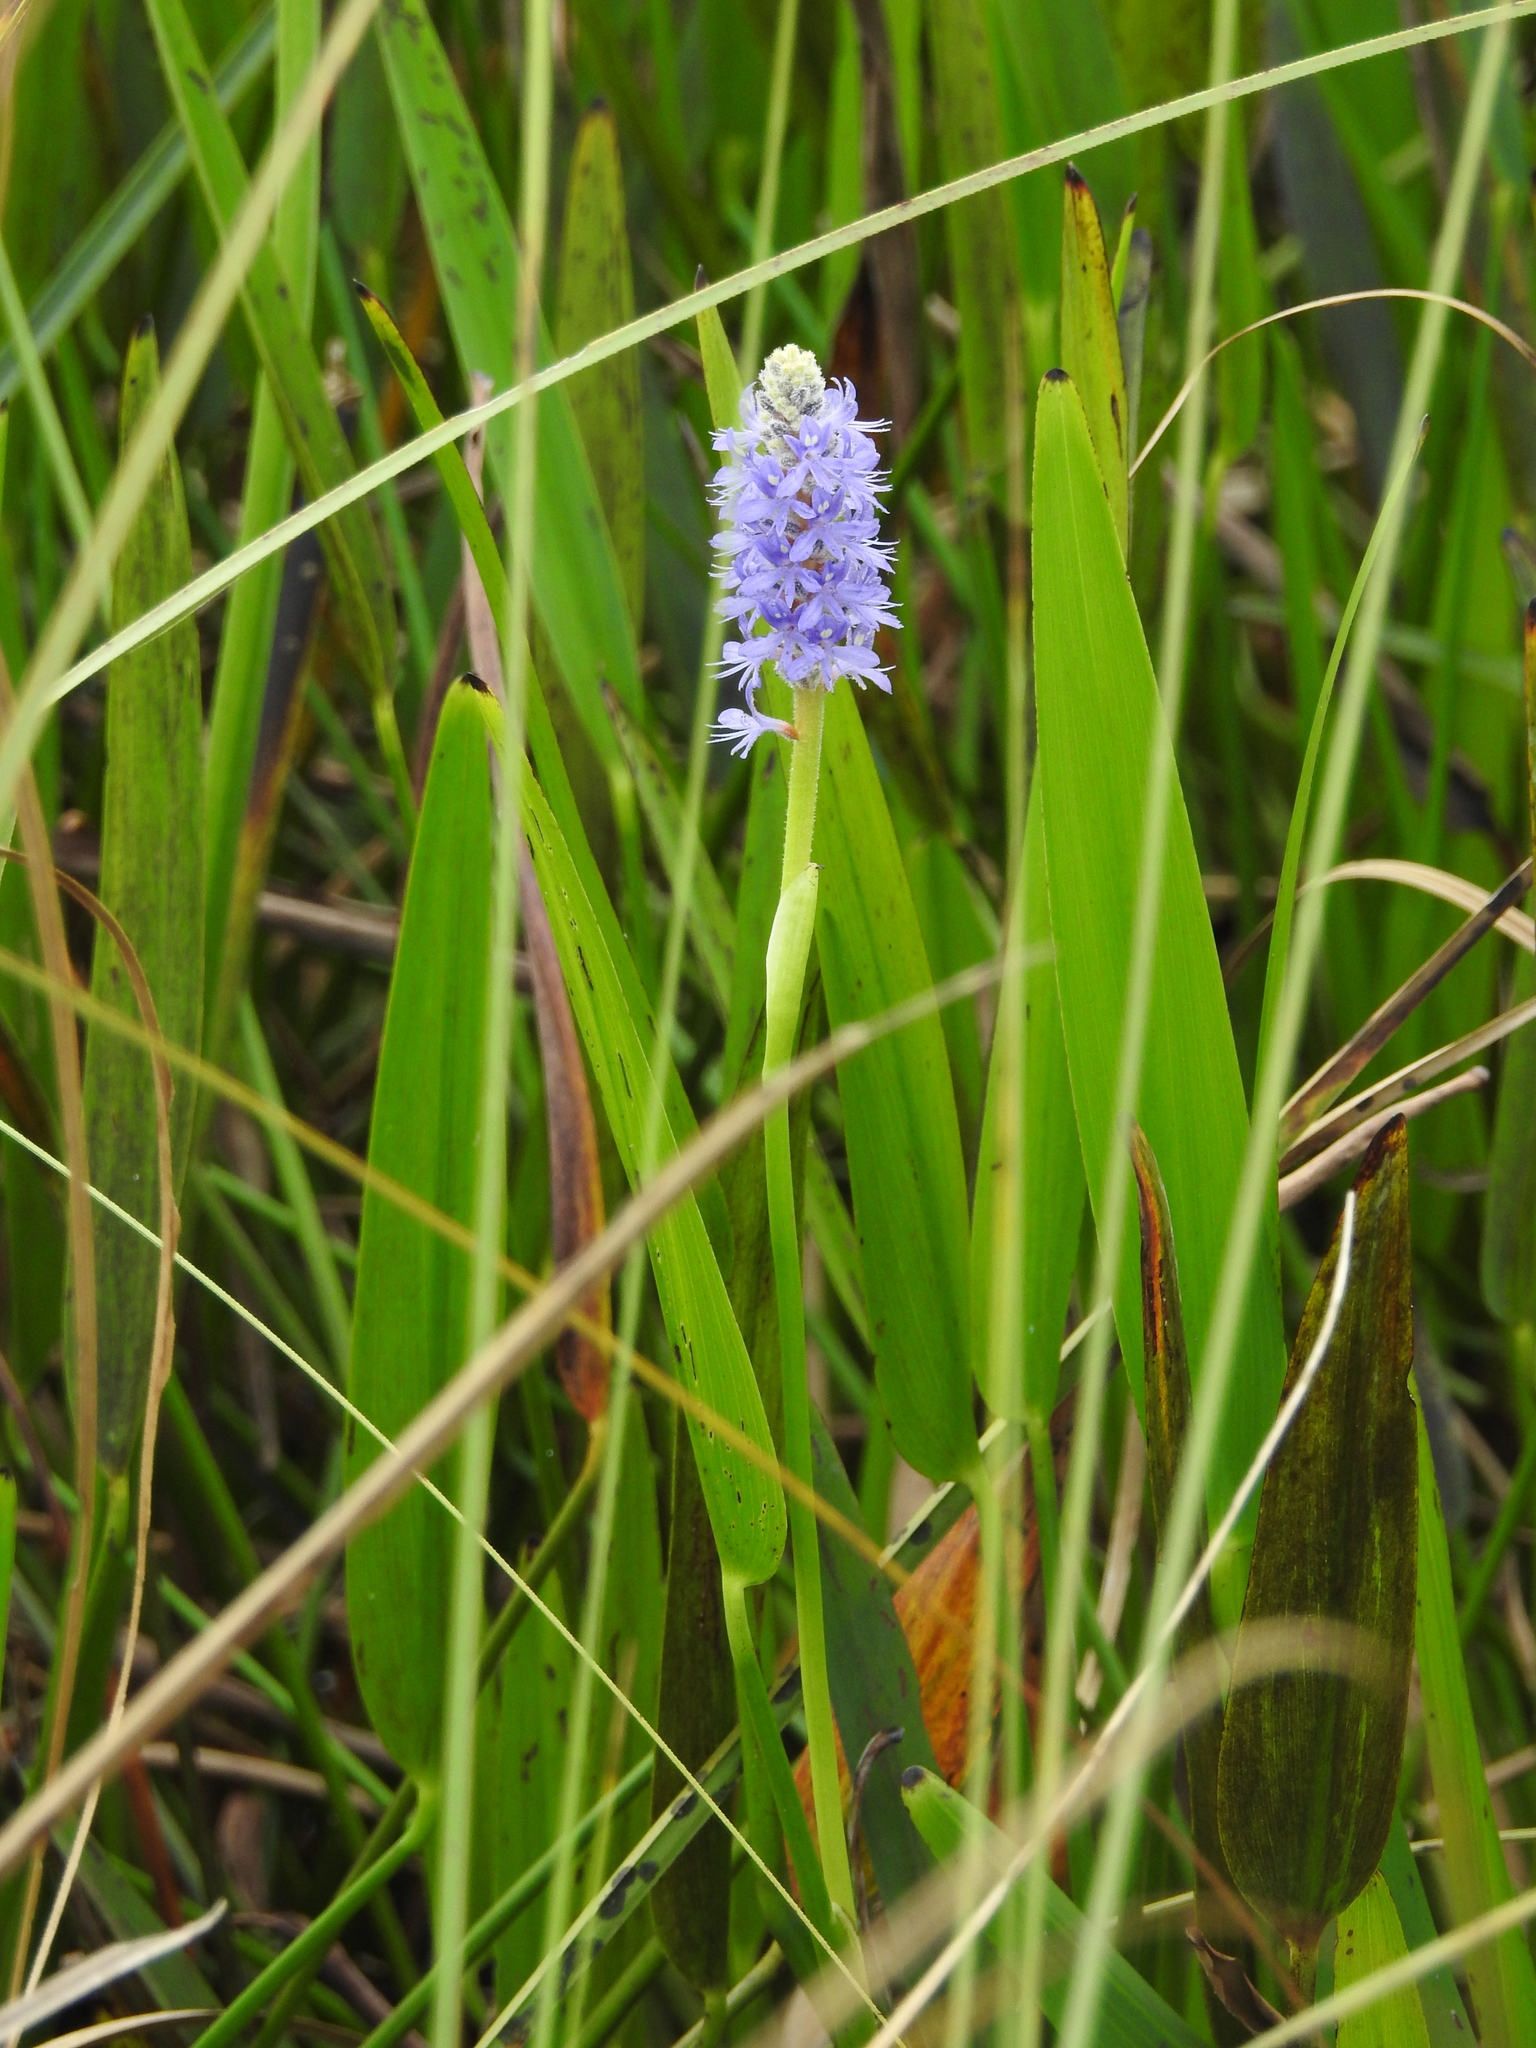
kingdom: Plantae
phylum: Tracheophyta
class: Liliopsida
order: Commelinales
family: Pontederiaceae
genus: Pontederia
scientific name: Pontederia cordata
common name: Pickerelweed
